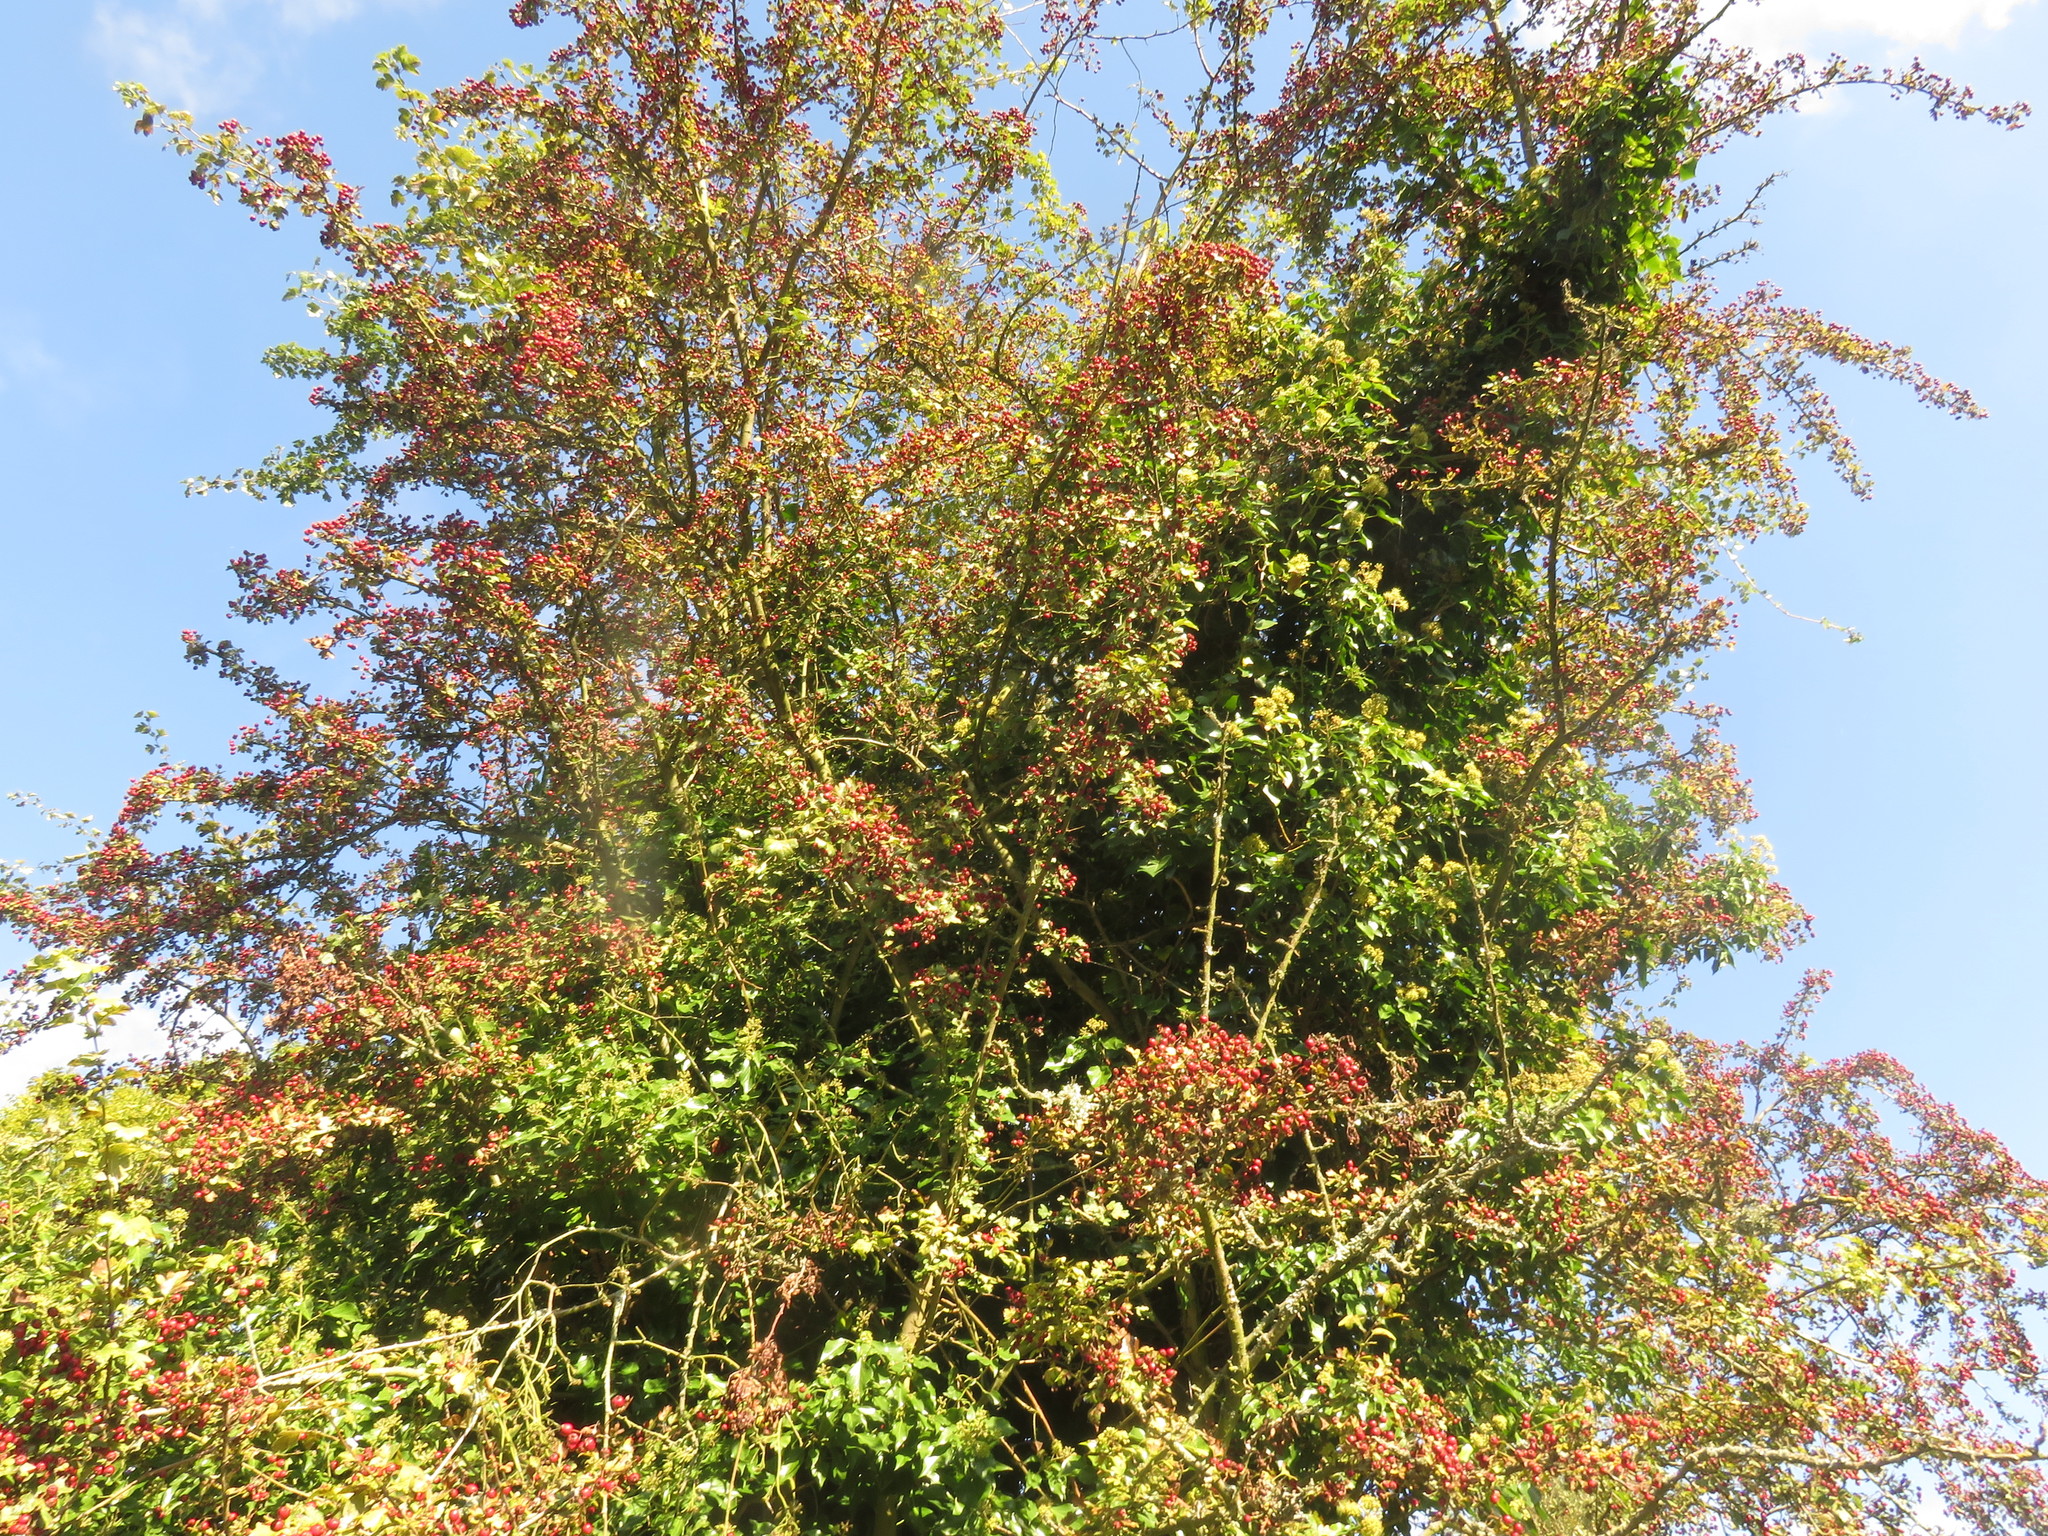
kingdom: Plantae
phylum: Tracheophyta
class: Magnoliopsida
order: Rosales
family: Rosaceae
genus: Crataegus
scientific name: Crataegus monogyna
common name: Hawthorn
